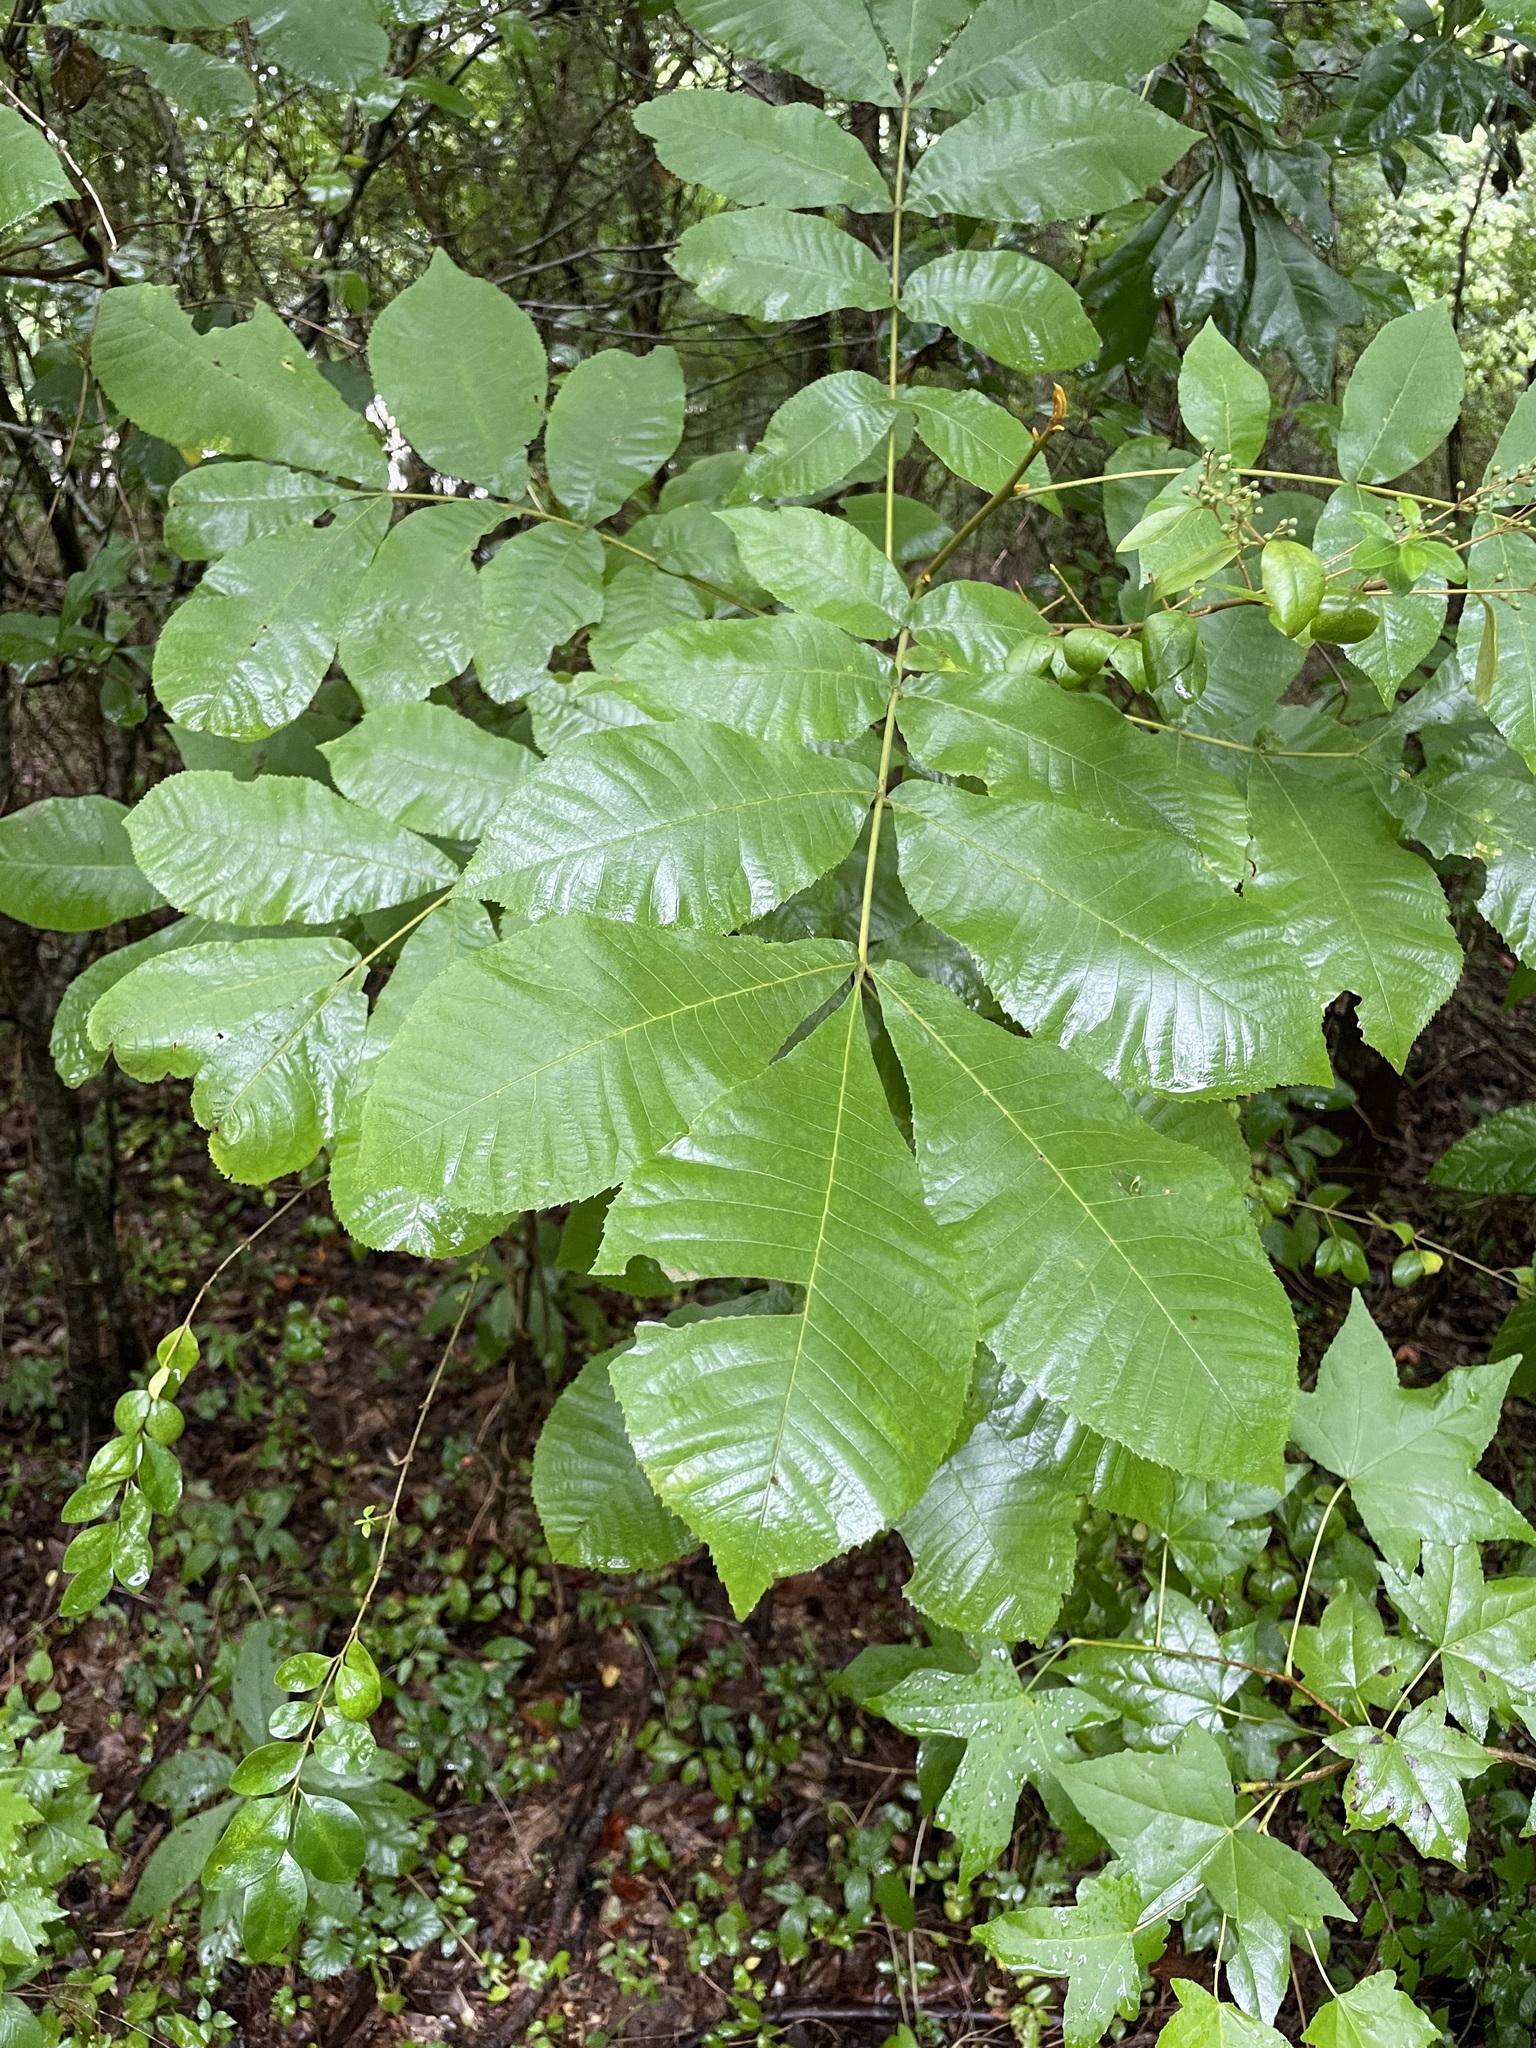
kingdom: Plantae
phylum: Tracheophyta
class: Magnoliopsida
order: Fagales
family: Juglandaceae
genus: Carya
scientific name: Carya cordiformis
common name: Bitternut hickory
